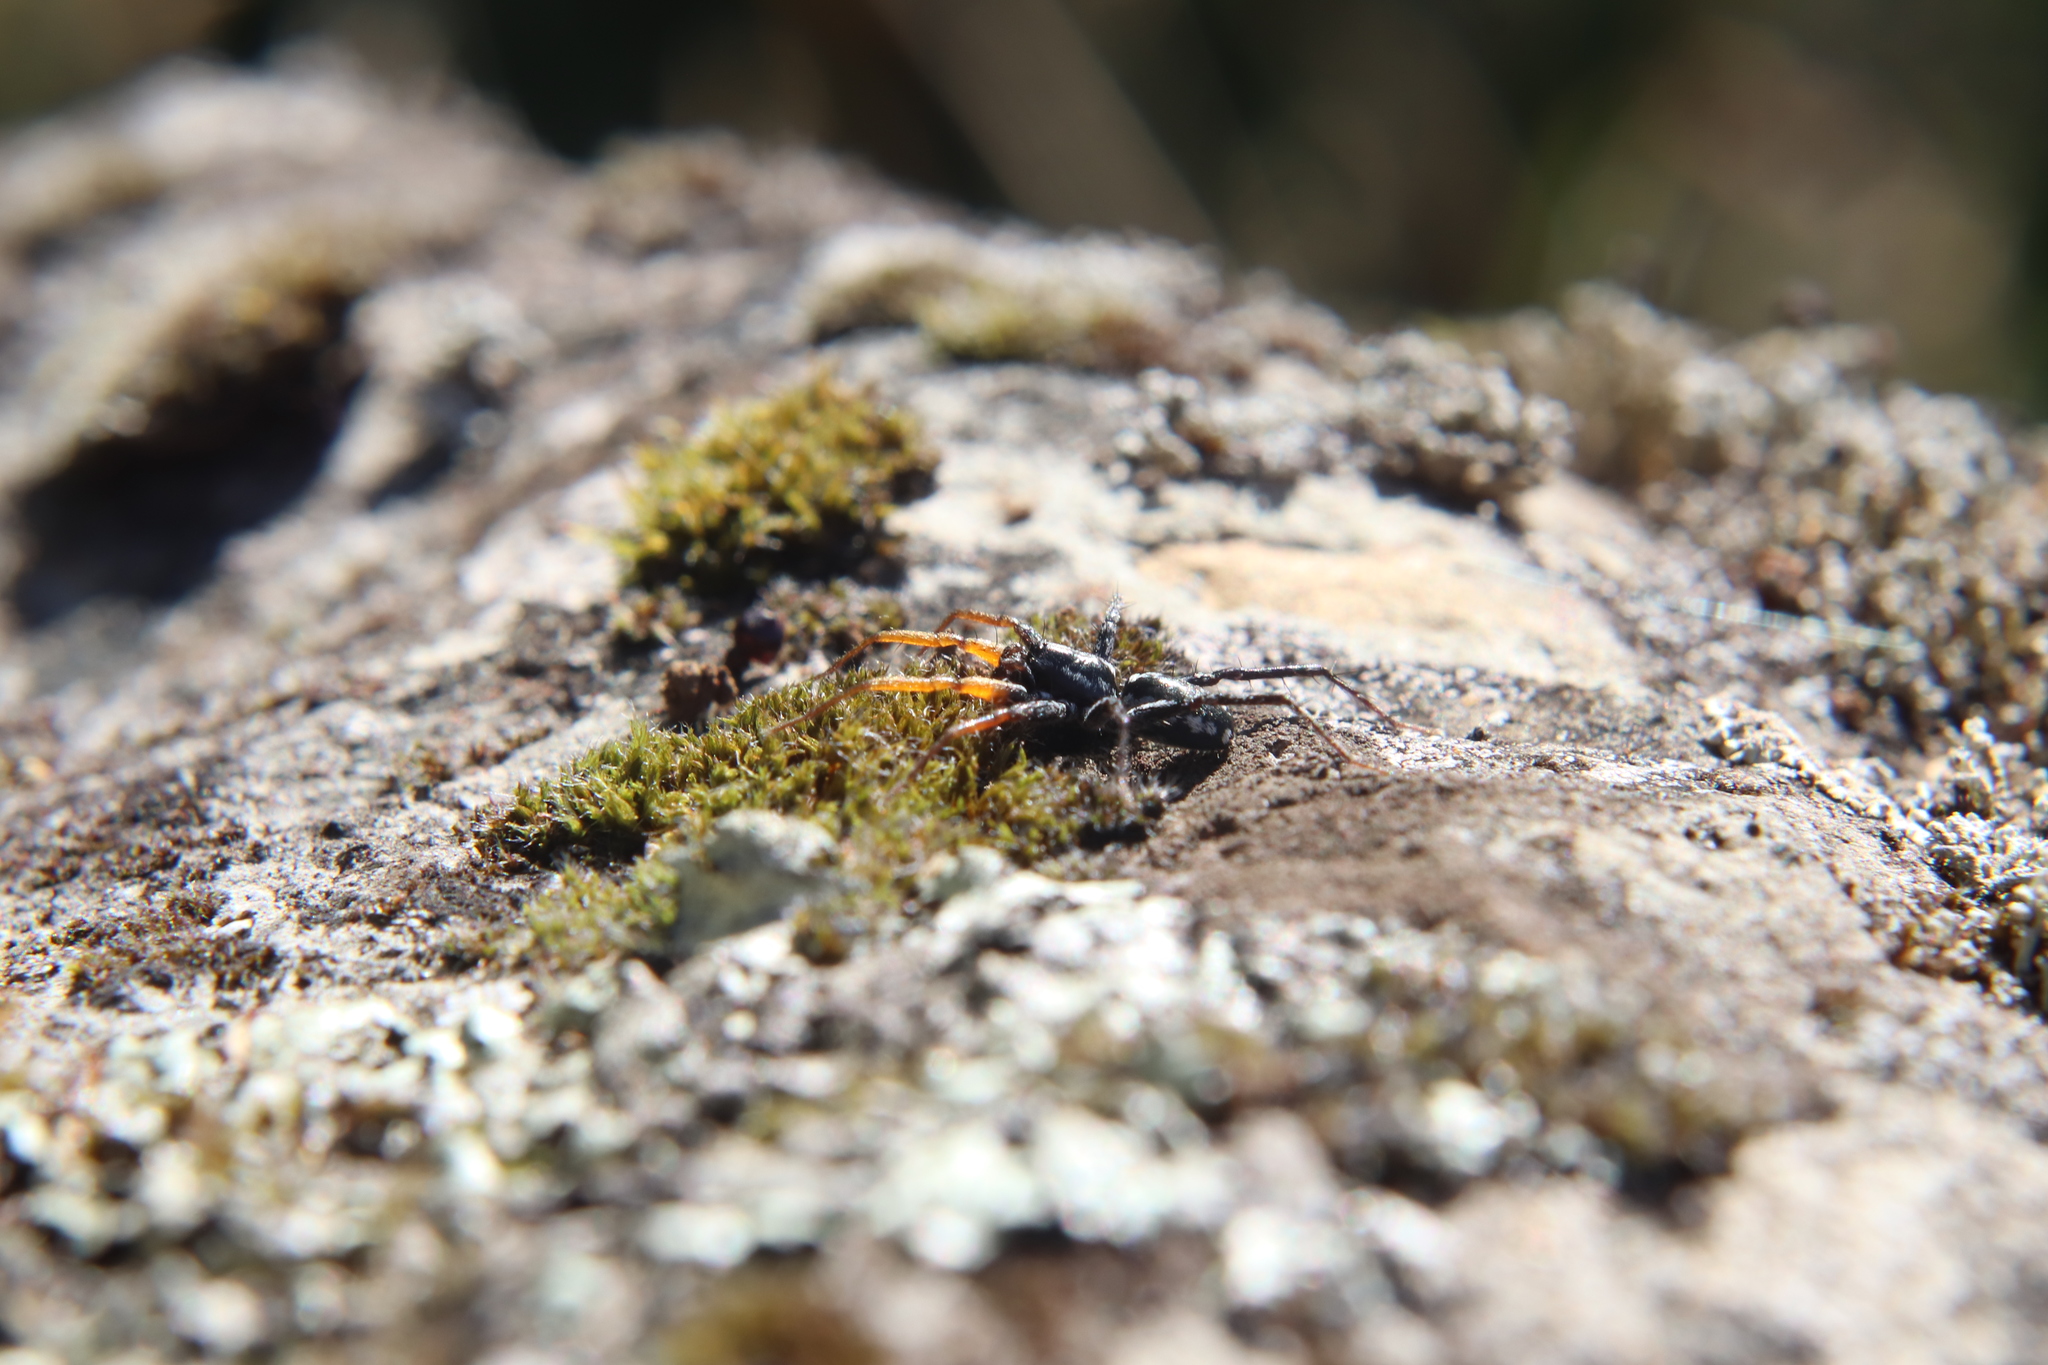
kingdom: Animalia
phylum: Arthropoda
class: Arachnida
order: Araneae
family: Corinnidae
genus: Nyssus
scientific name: Nyssus coloripes
